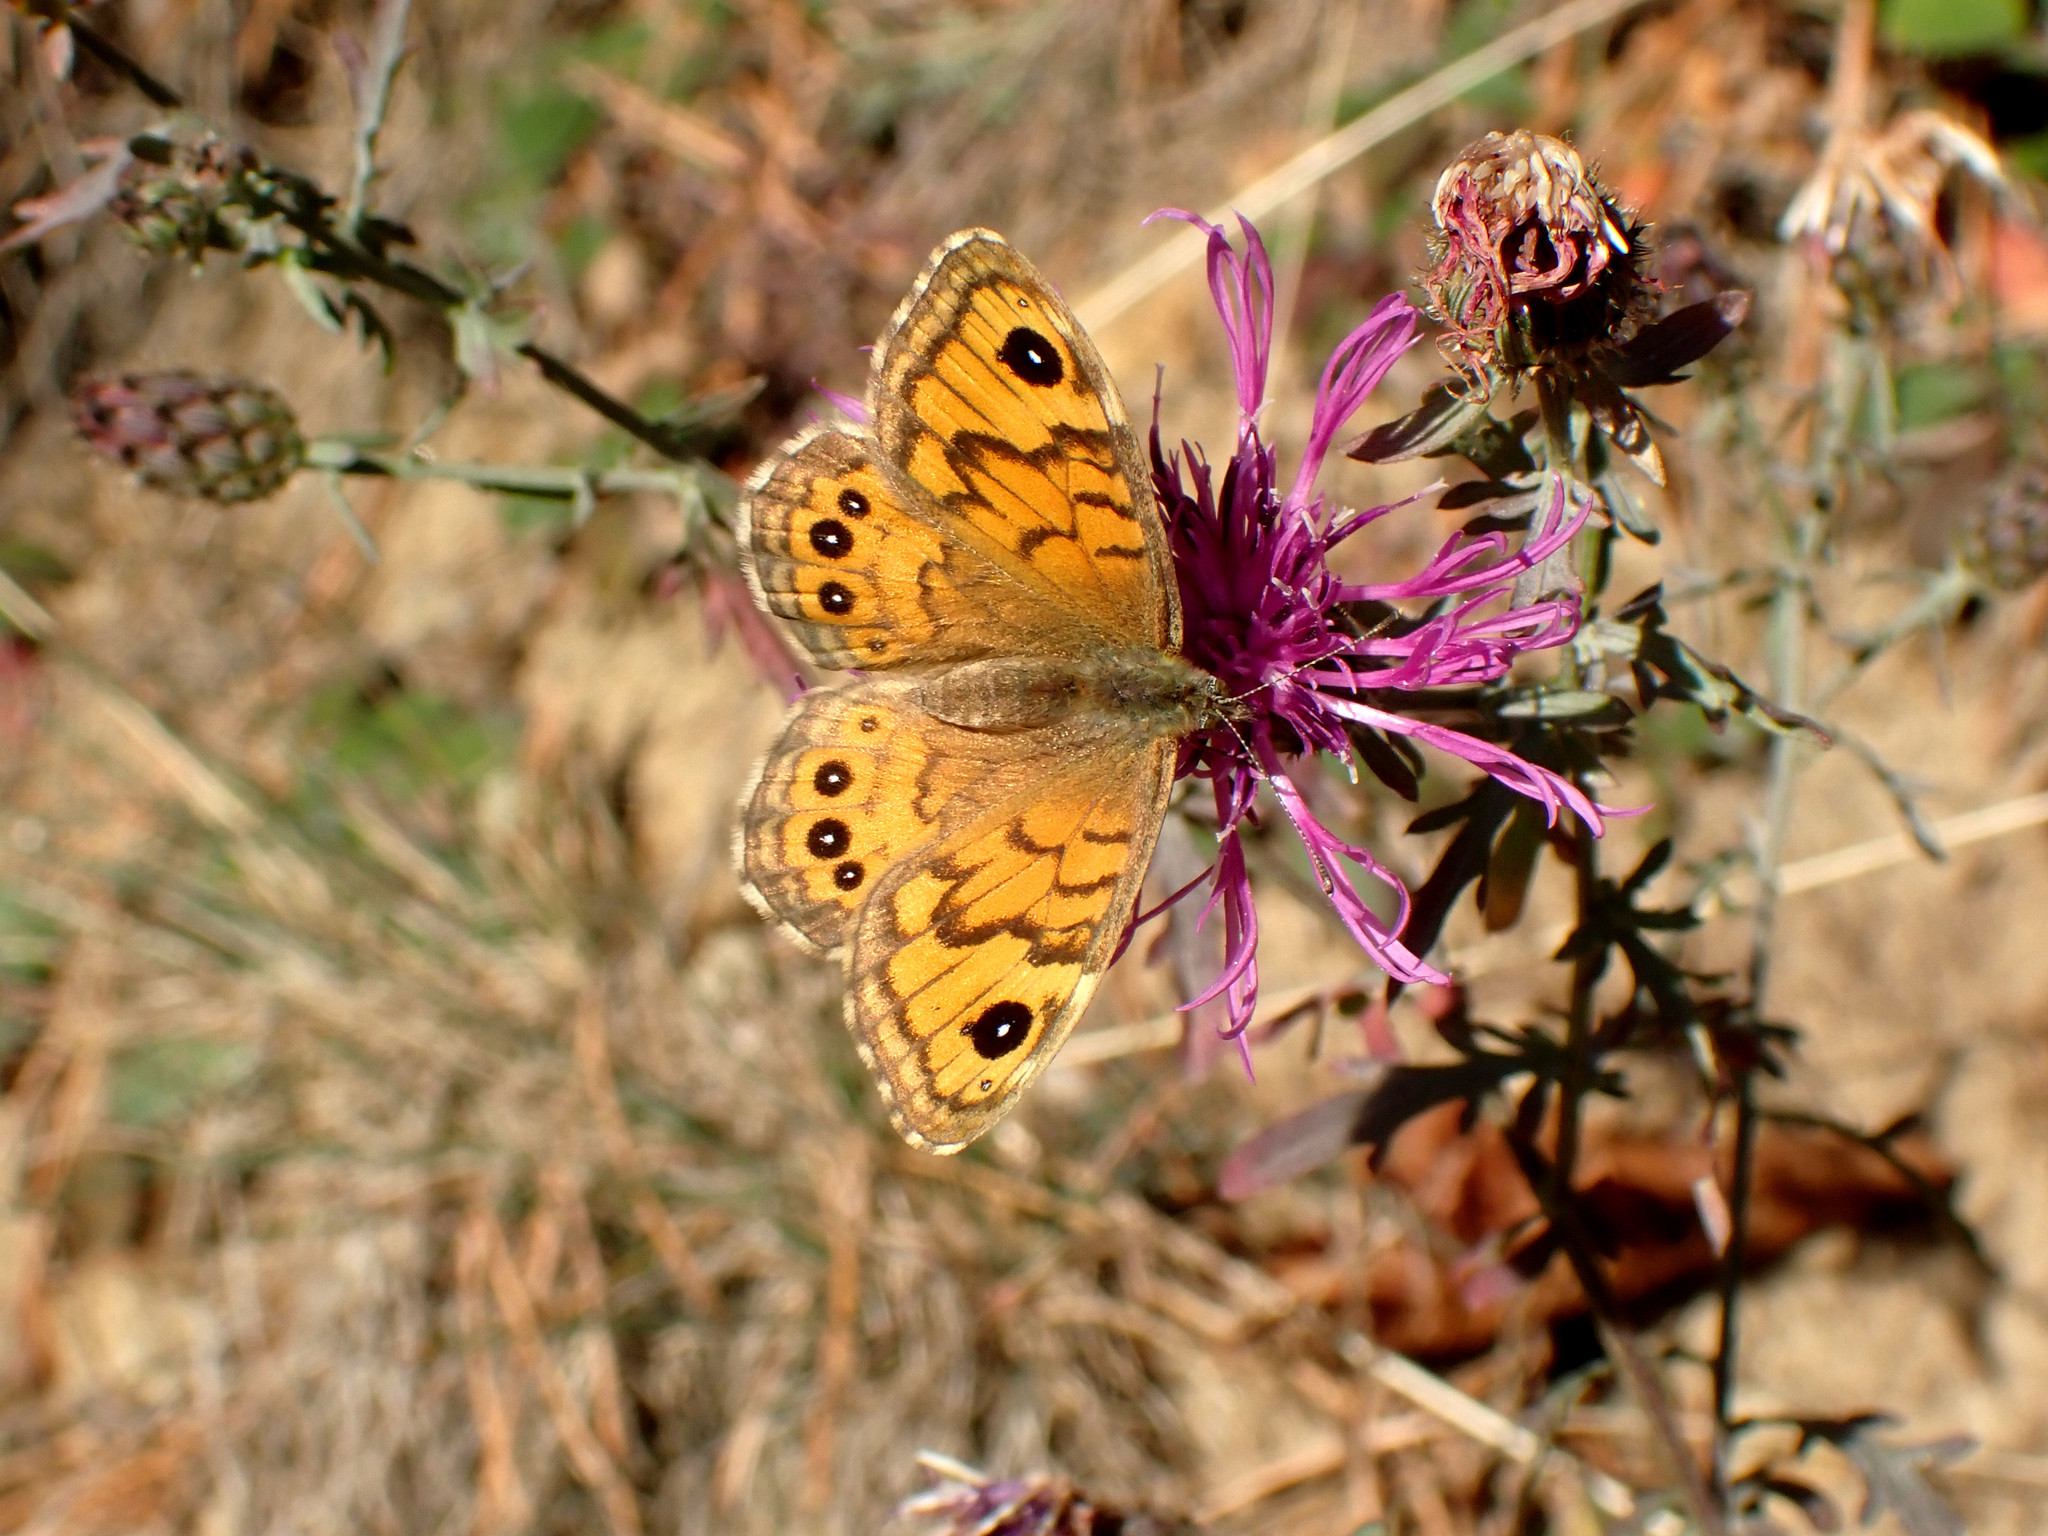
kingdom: Animalia
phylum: Arthropoda
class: Insecta
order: Lepidoptera
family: Nymphalidae
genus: Pararge
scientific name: Pararge Lasiommata megera
